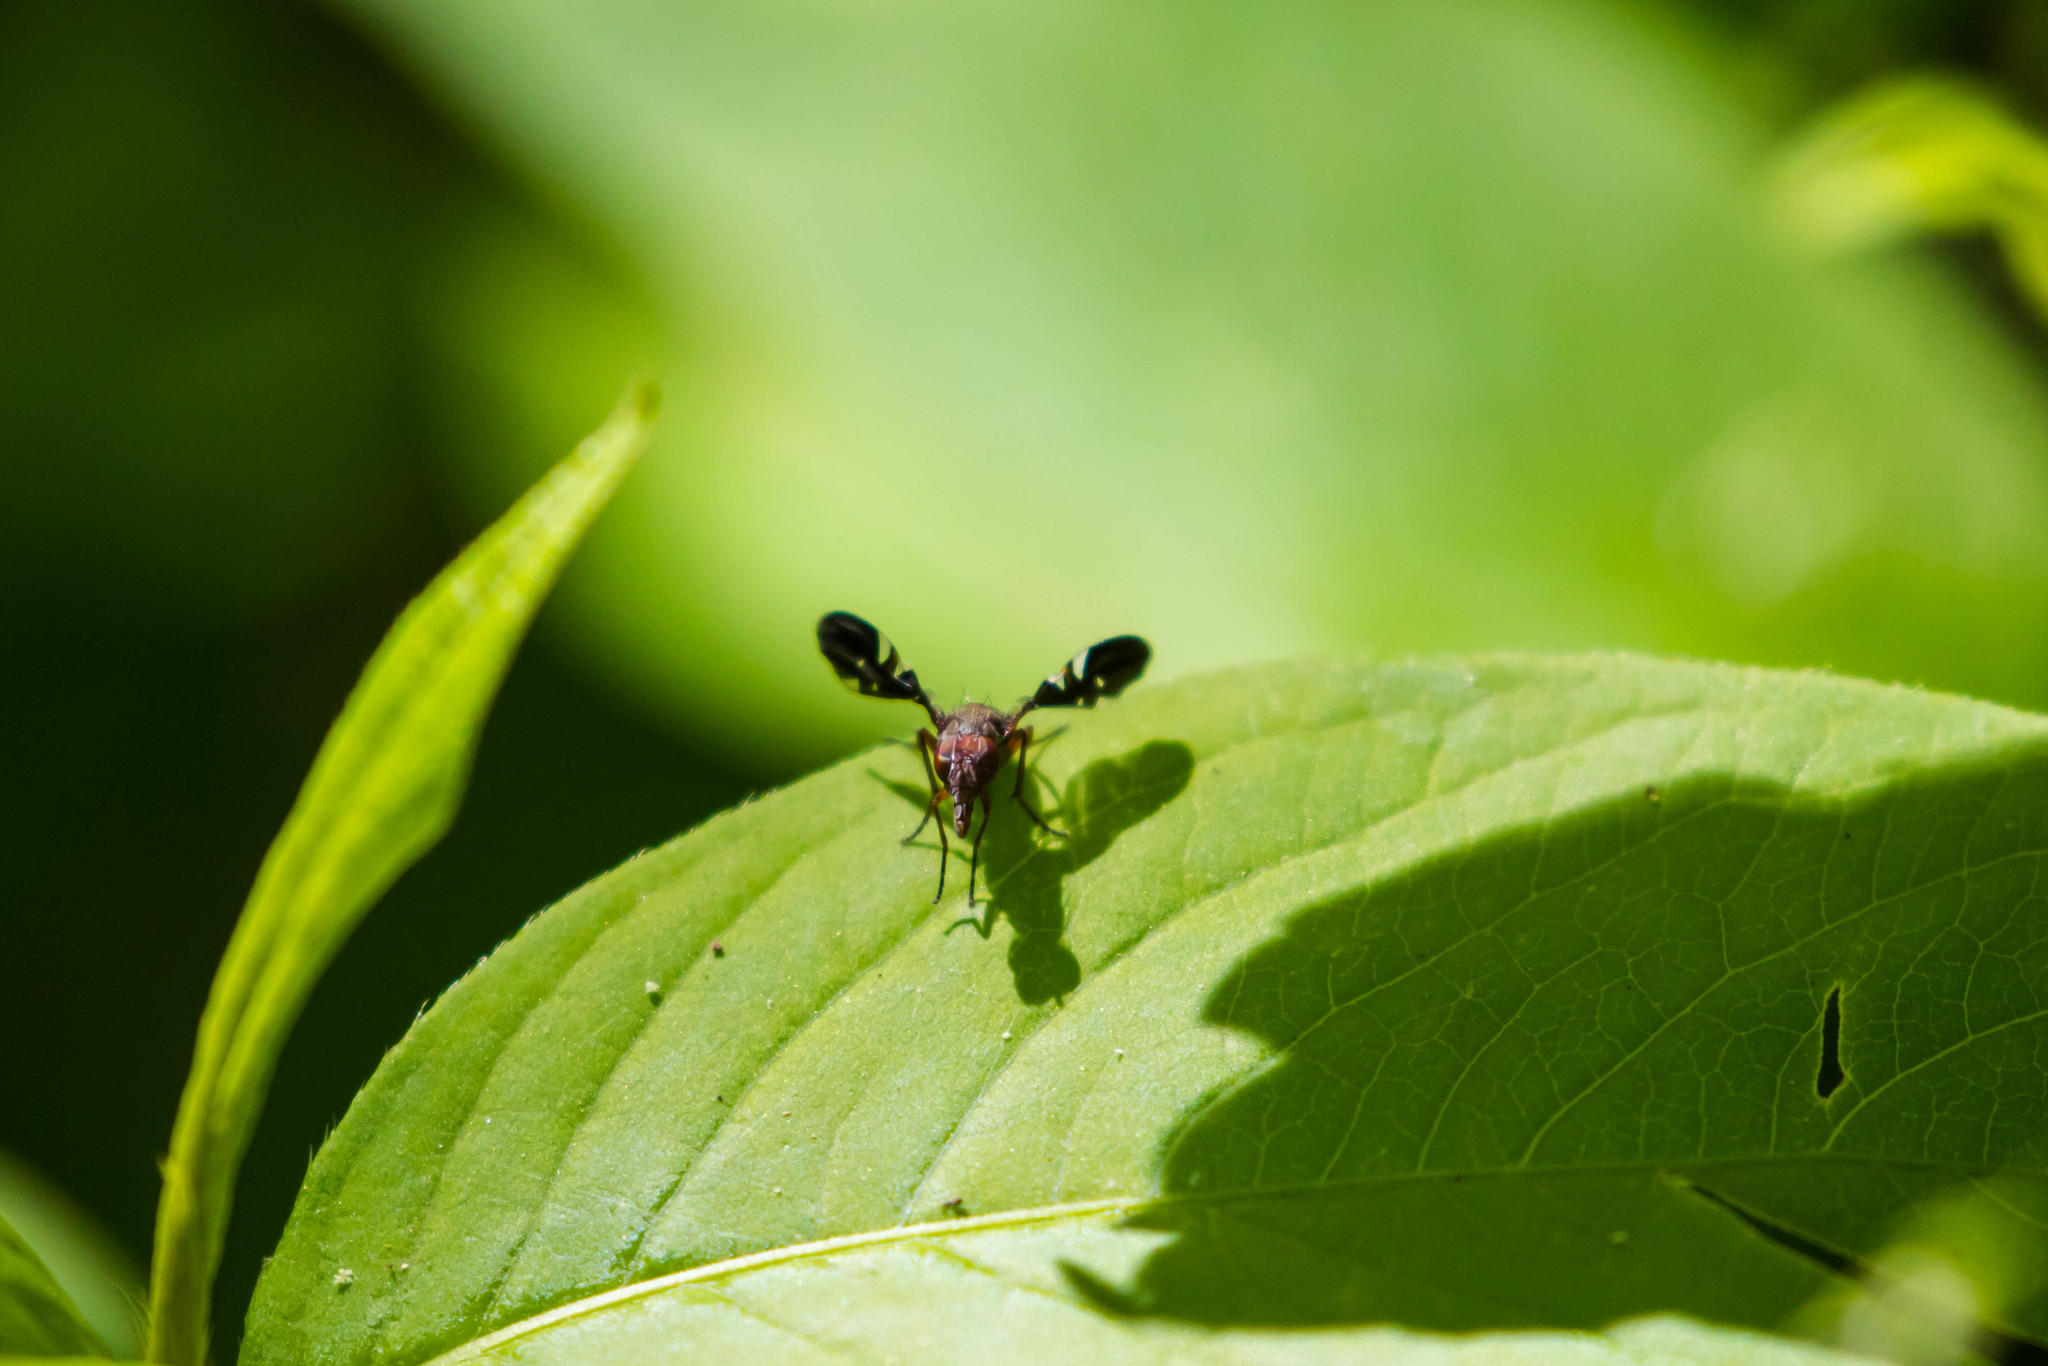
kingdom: Animalia
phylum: Arthropoda
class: Insecta
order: Diptera
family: Ulidiidae
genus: Delphinia
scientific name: Delphinia picta
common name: Common picture-winged fly
